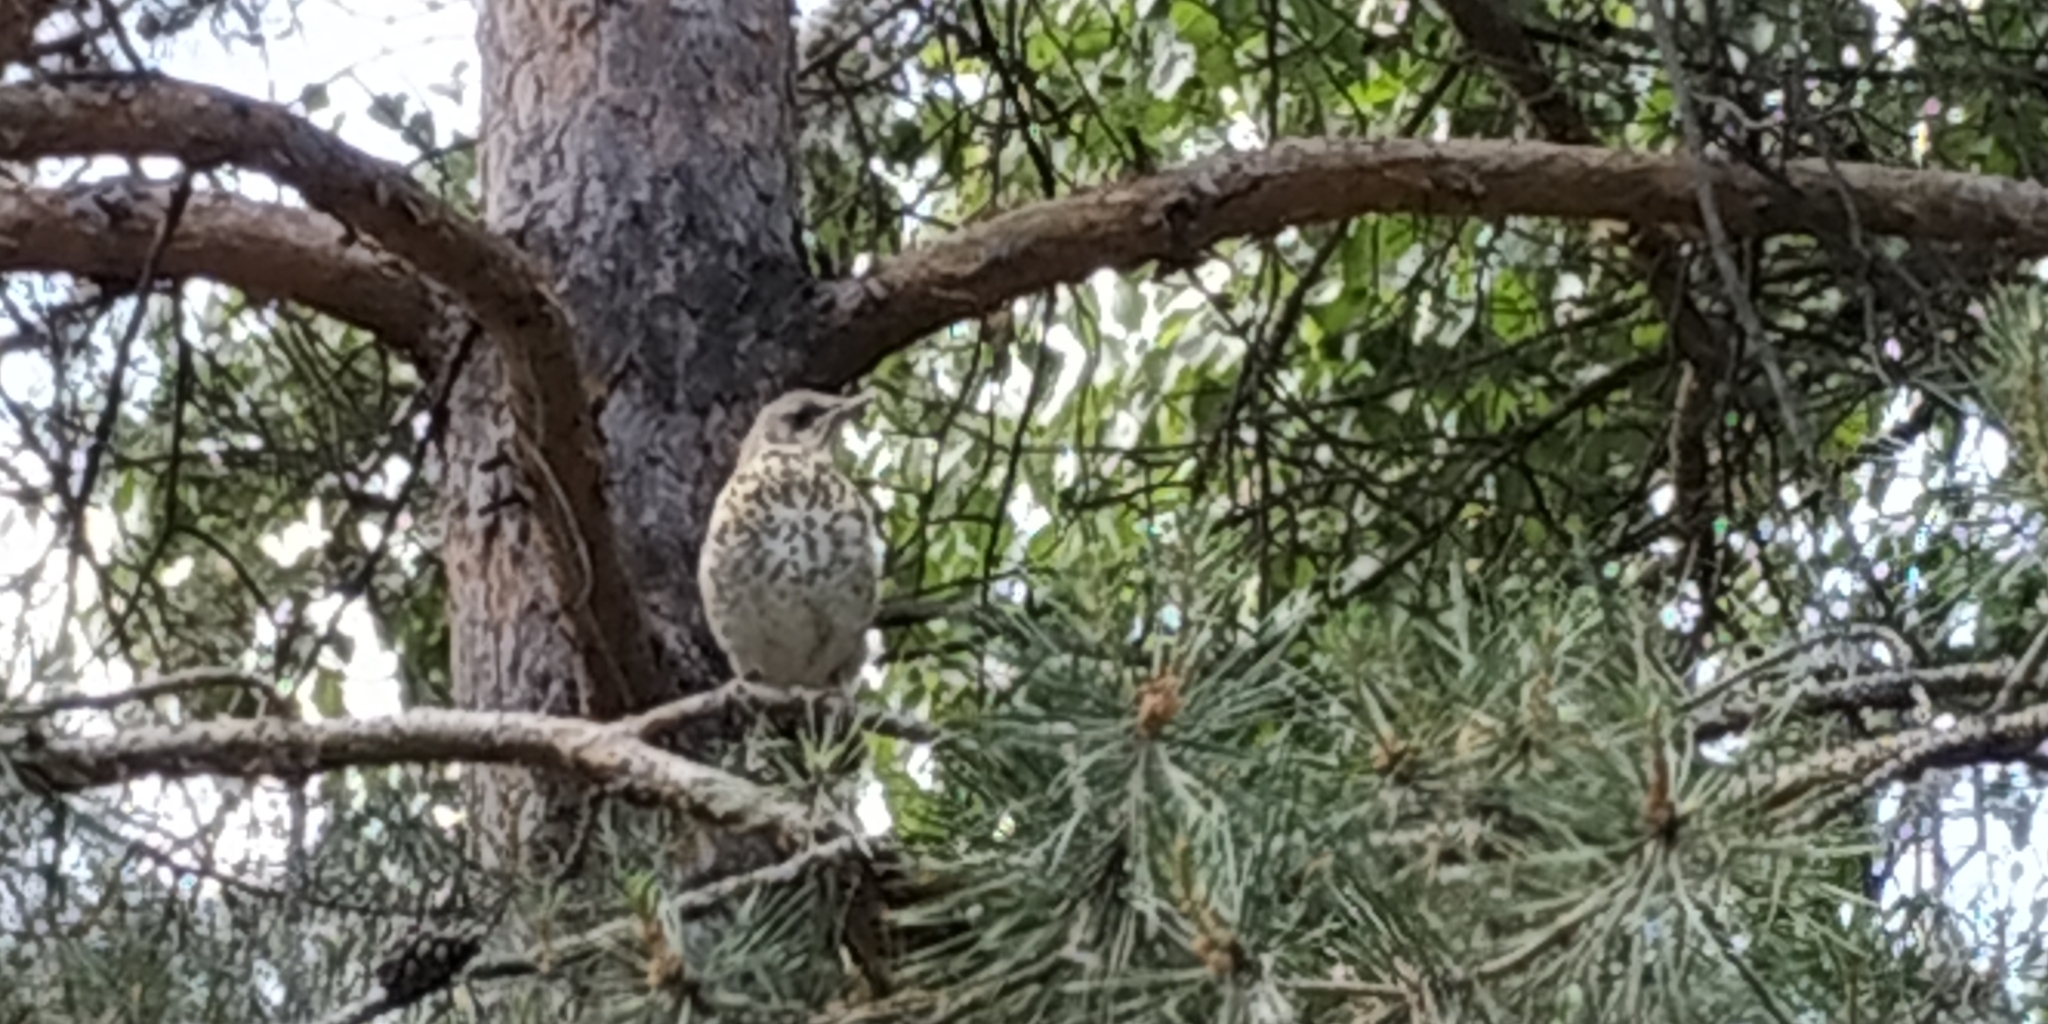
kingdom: Animalia
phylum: Chordata
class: Aves
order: Passeriformes
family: Turdidae
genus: Turdus
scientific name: Turdus pilaris
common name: Fieldfare
